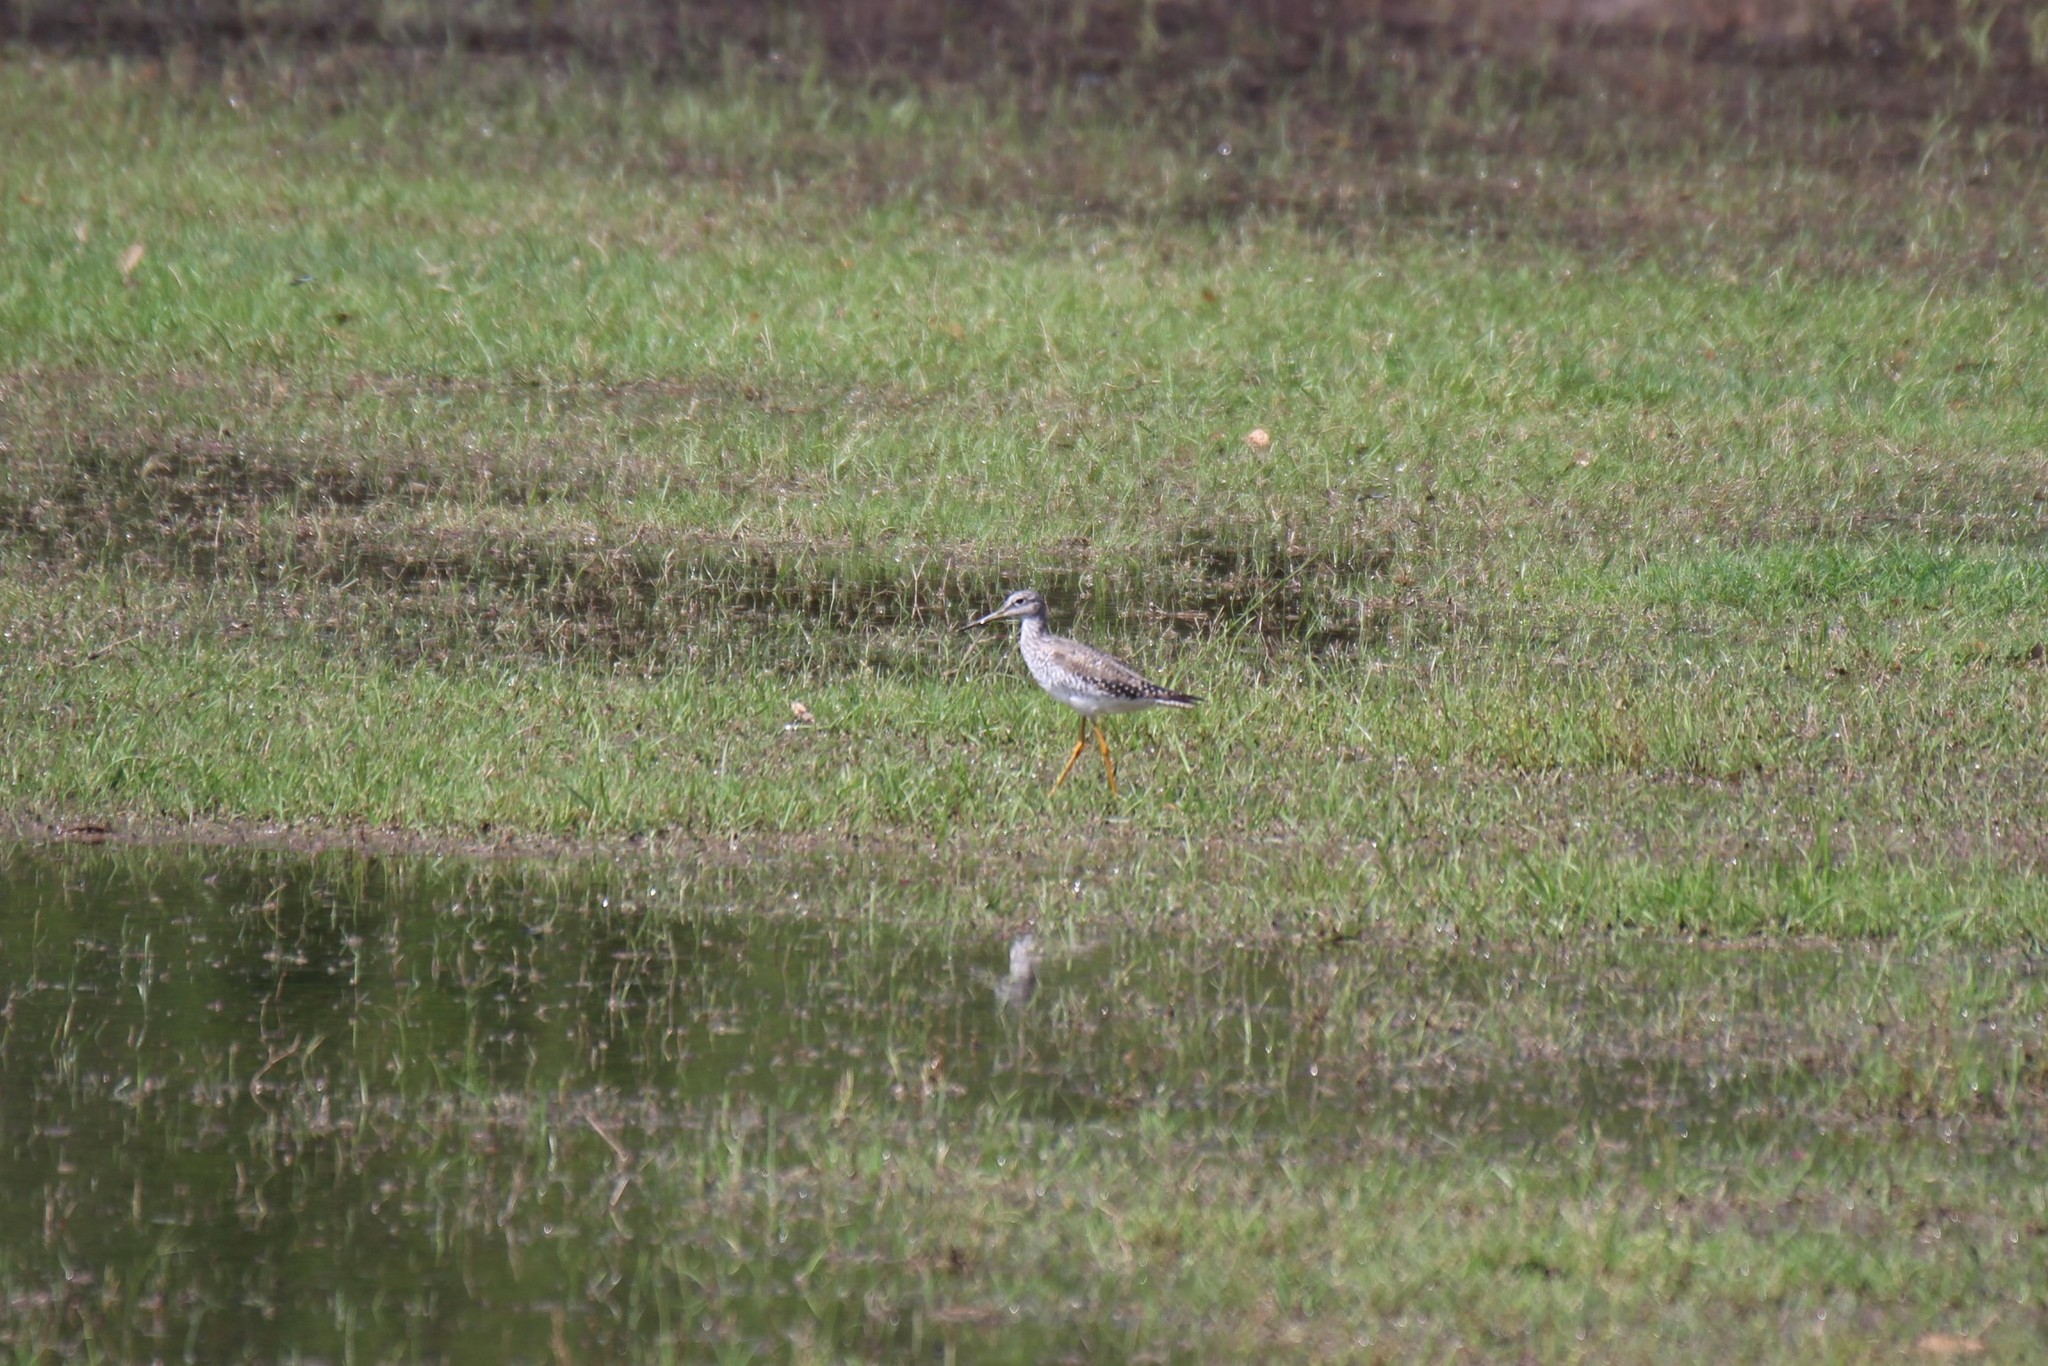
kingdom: Animalia
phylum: Chordata
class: Aves
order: Charadriiformes
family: Scolopacidae
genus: Tringa
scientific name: Tringa melanoleuca
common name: Greater yellowlegs
